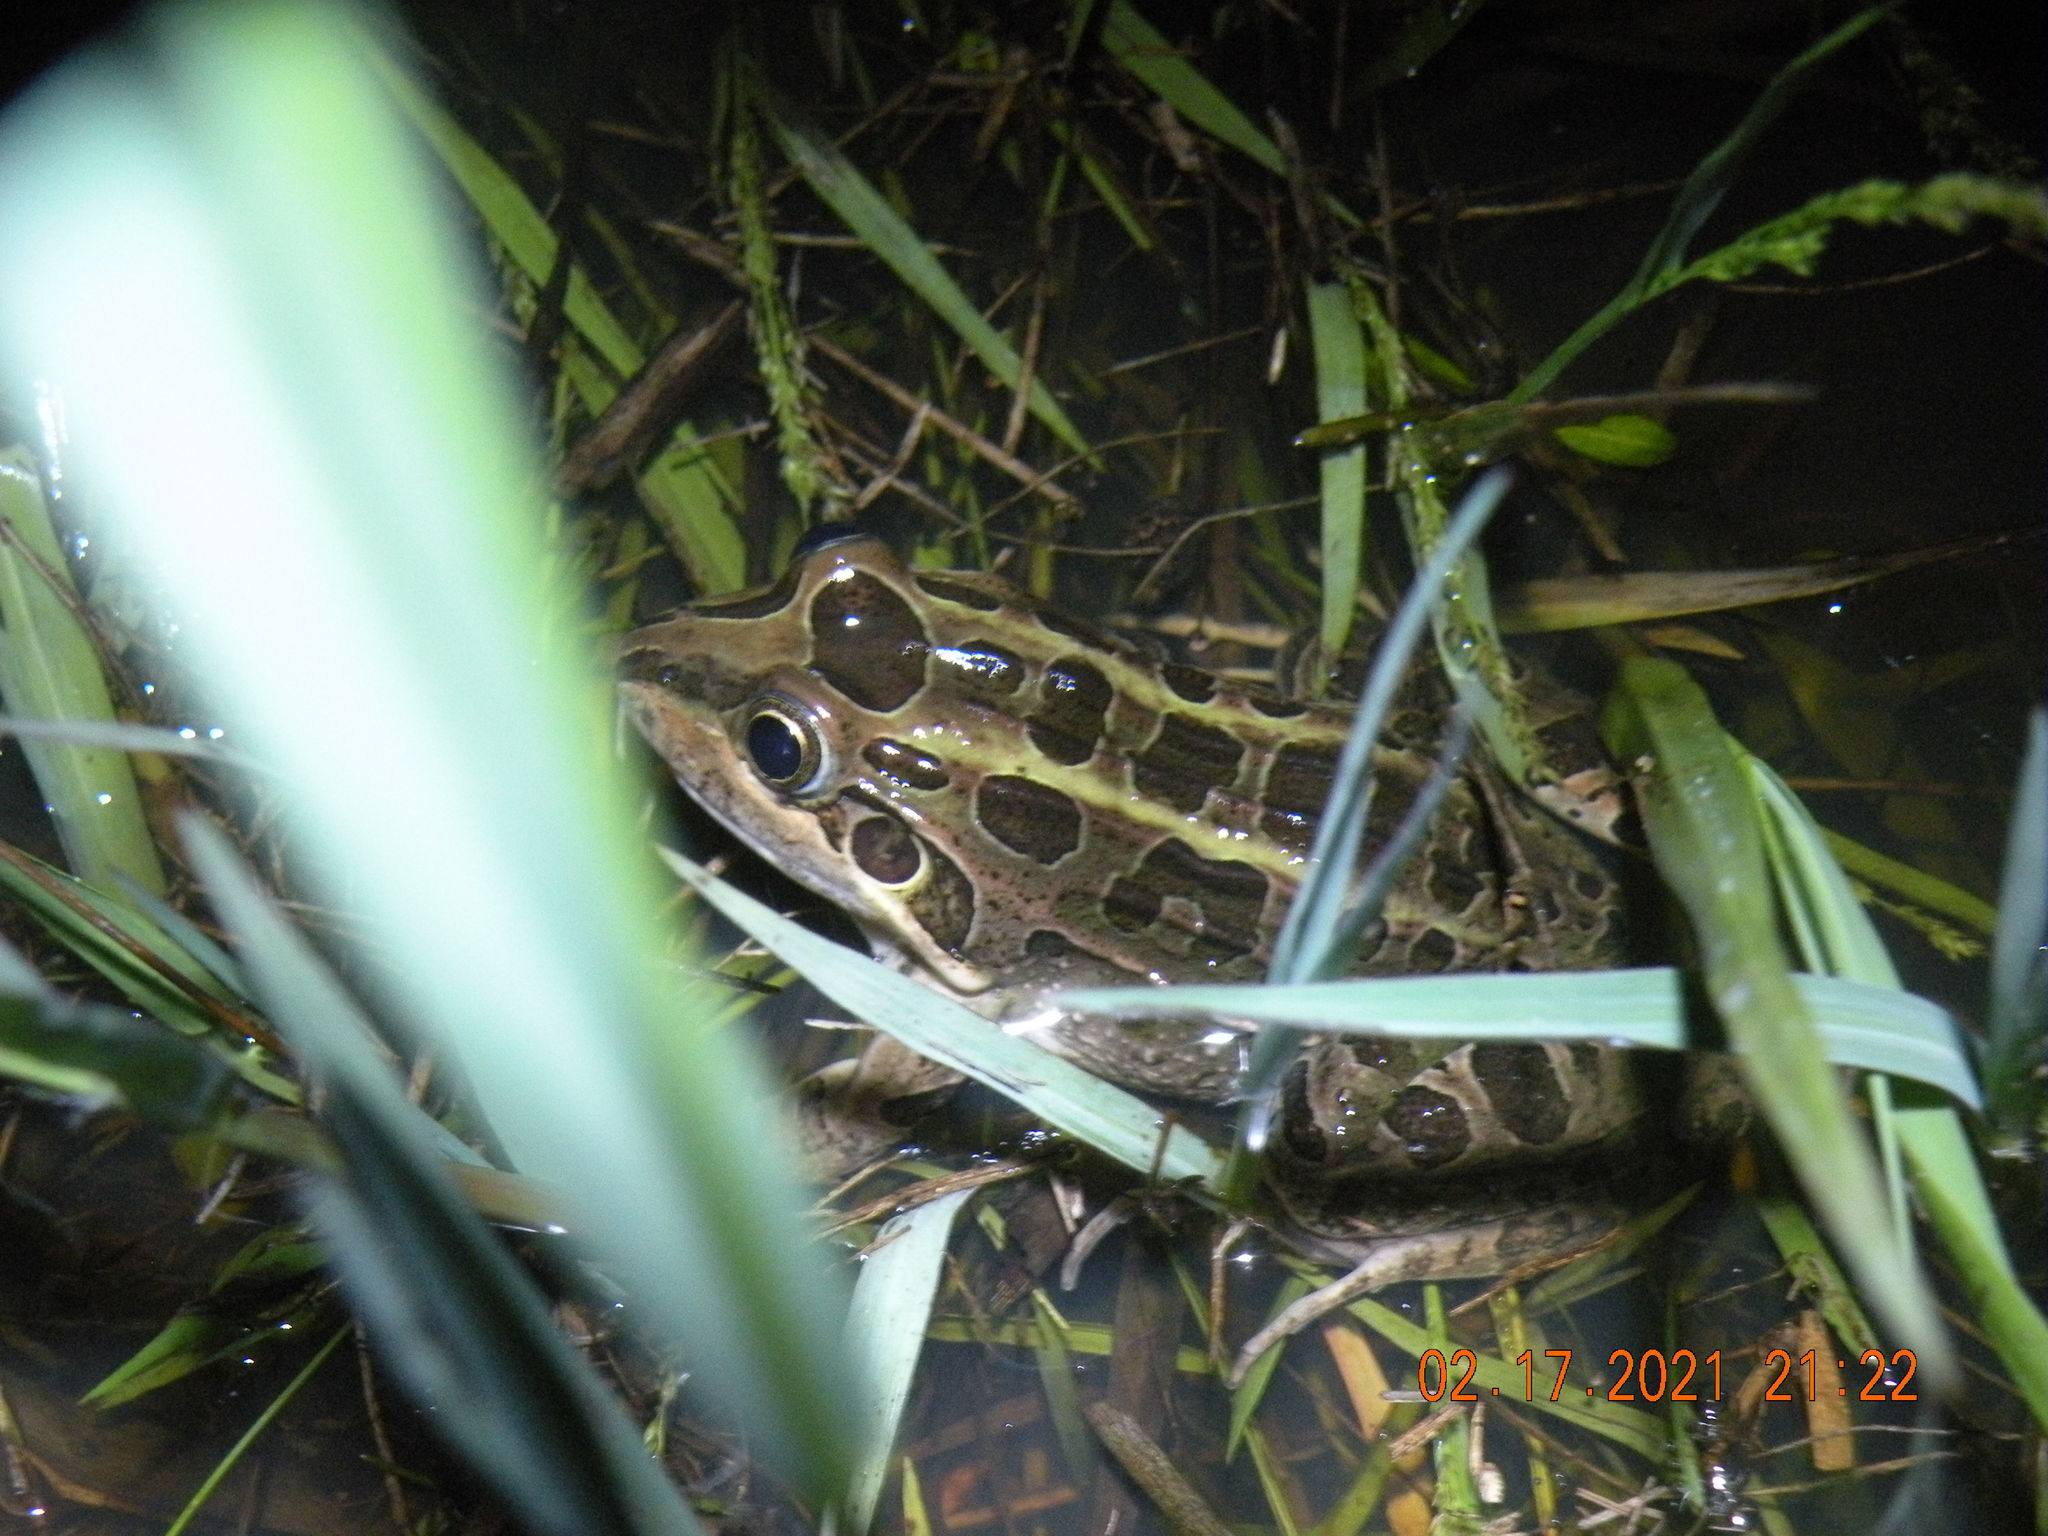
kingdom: Animalia
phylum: Chordata
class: Amphibia
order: Anura
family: Leptodactylidae
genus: Leptodactylus
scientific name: Leptodactylus luctator
